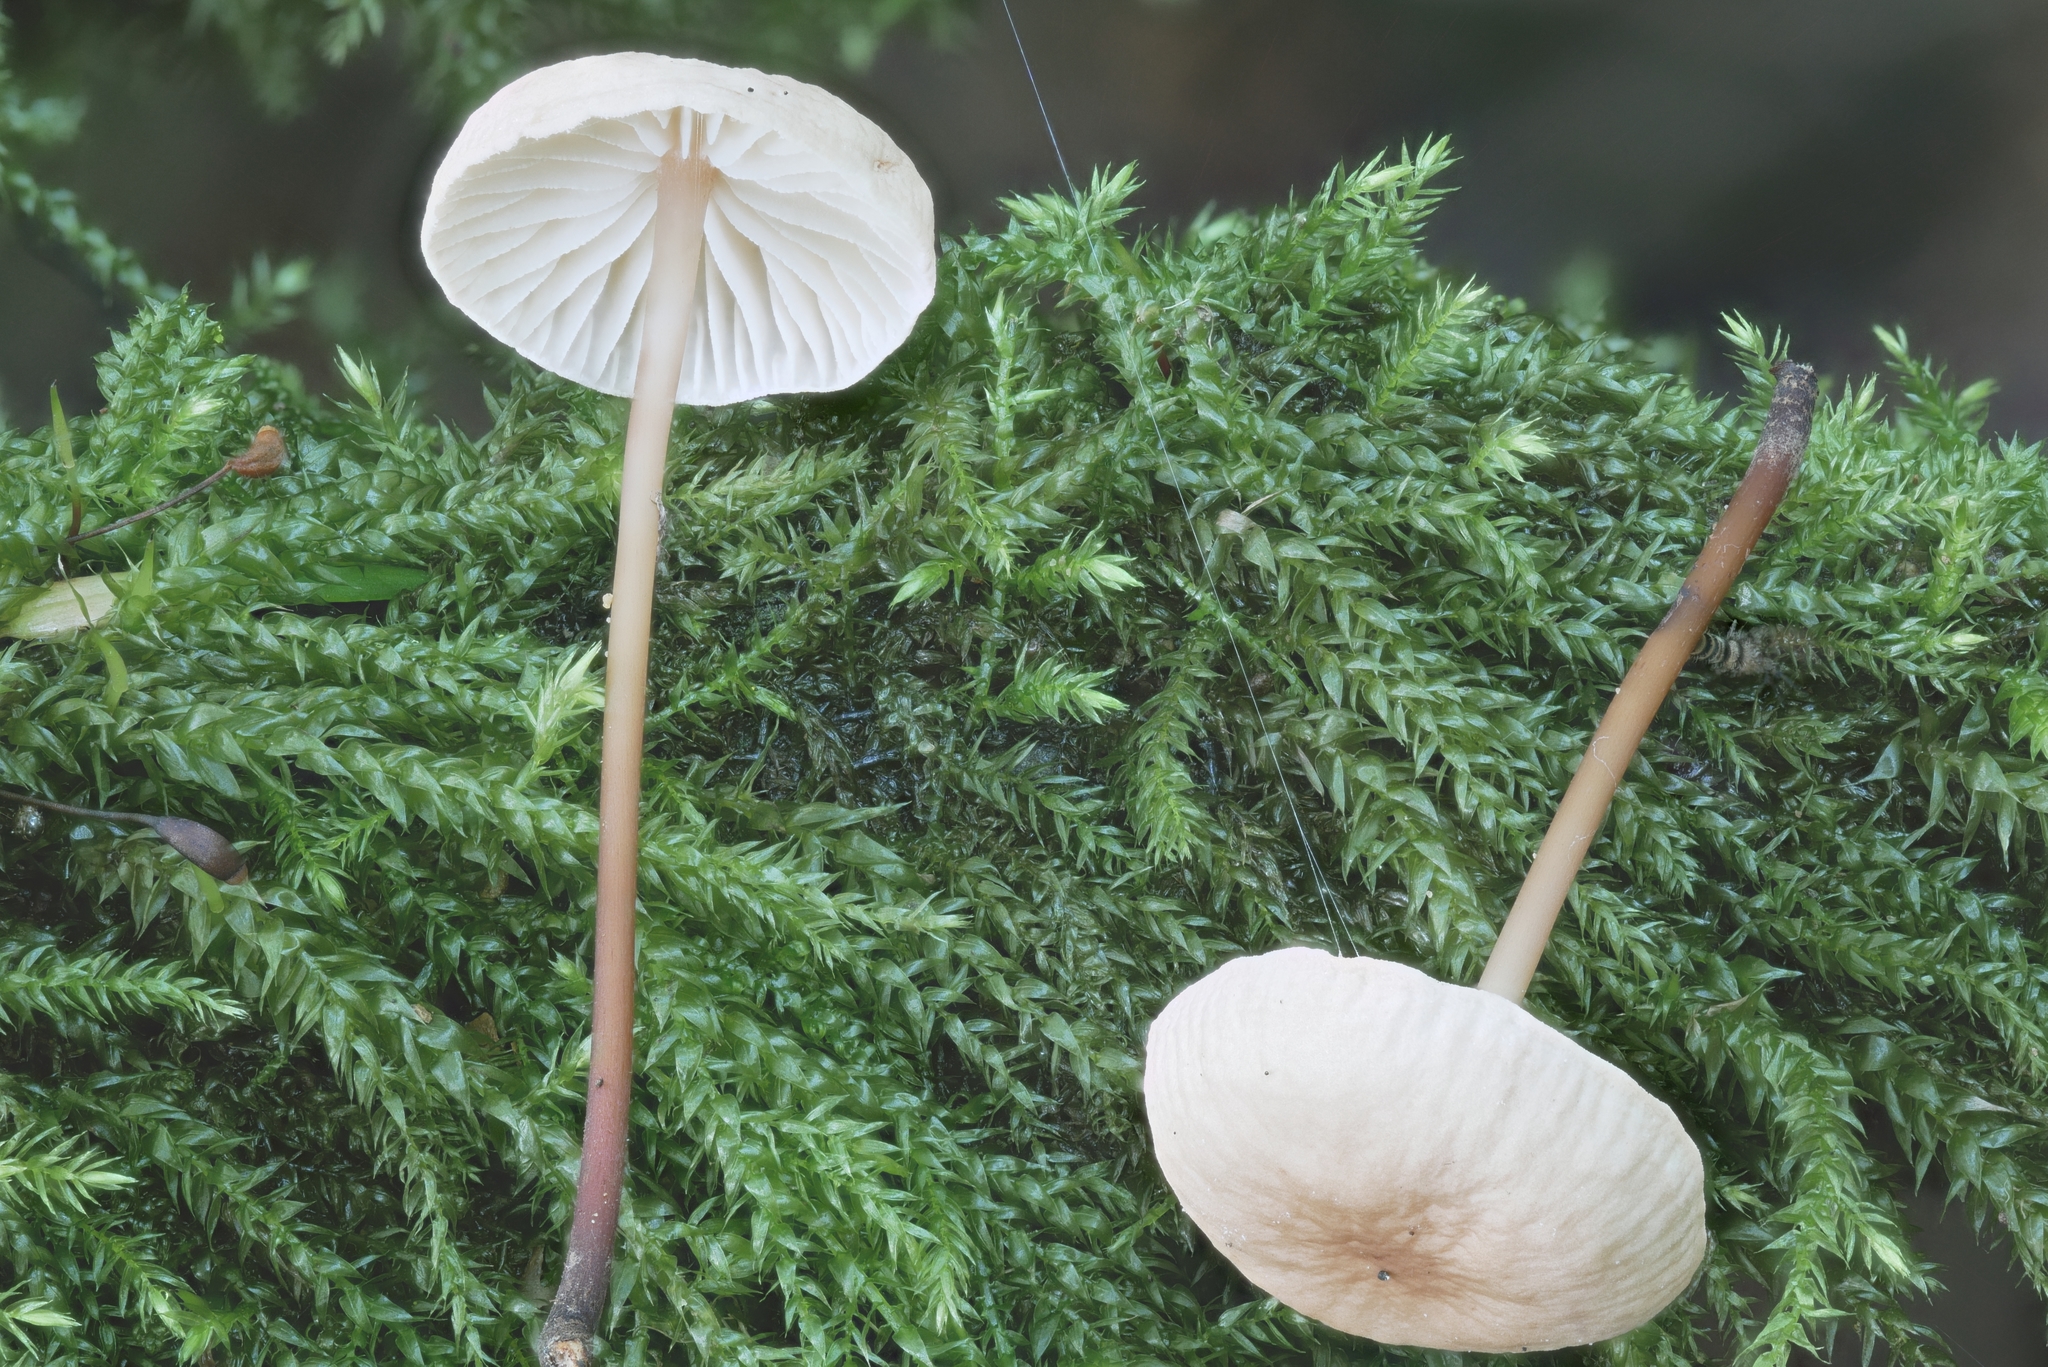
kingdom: Fungi
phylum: Basidiomycota
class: Agaricomycetes
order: Agaricales
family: Omphalotaceae
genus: Mycetinis
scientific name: Mycetinis scorodonius
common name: Vampires bane
